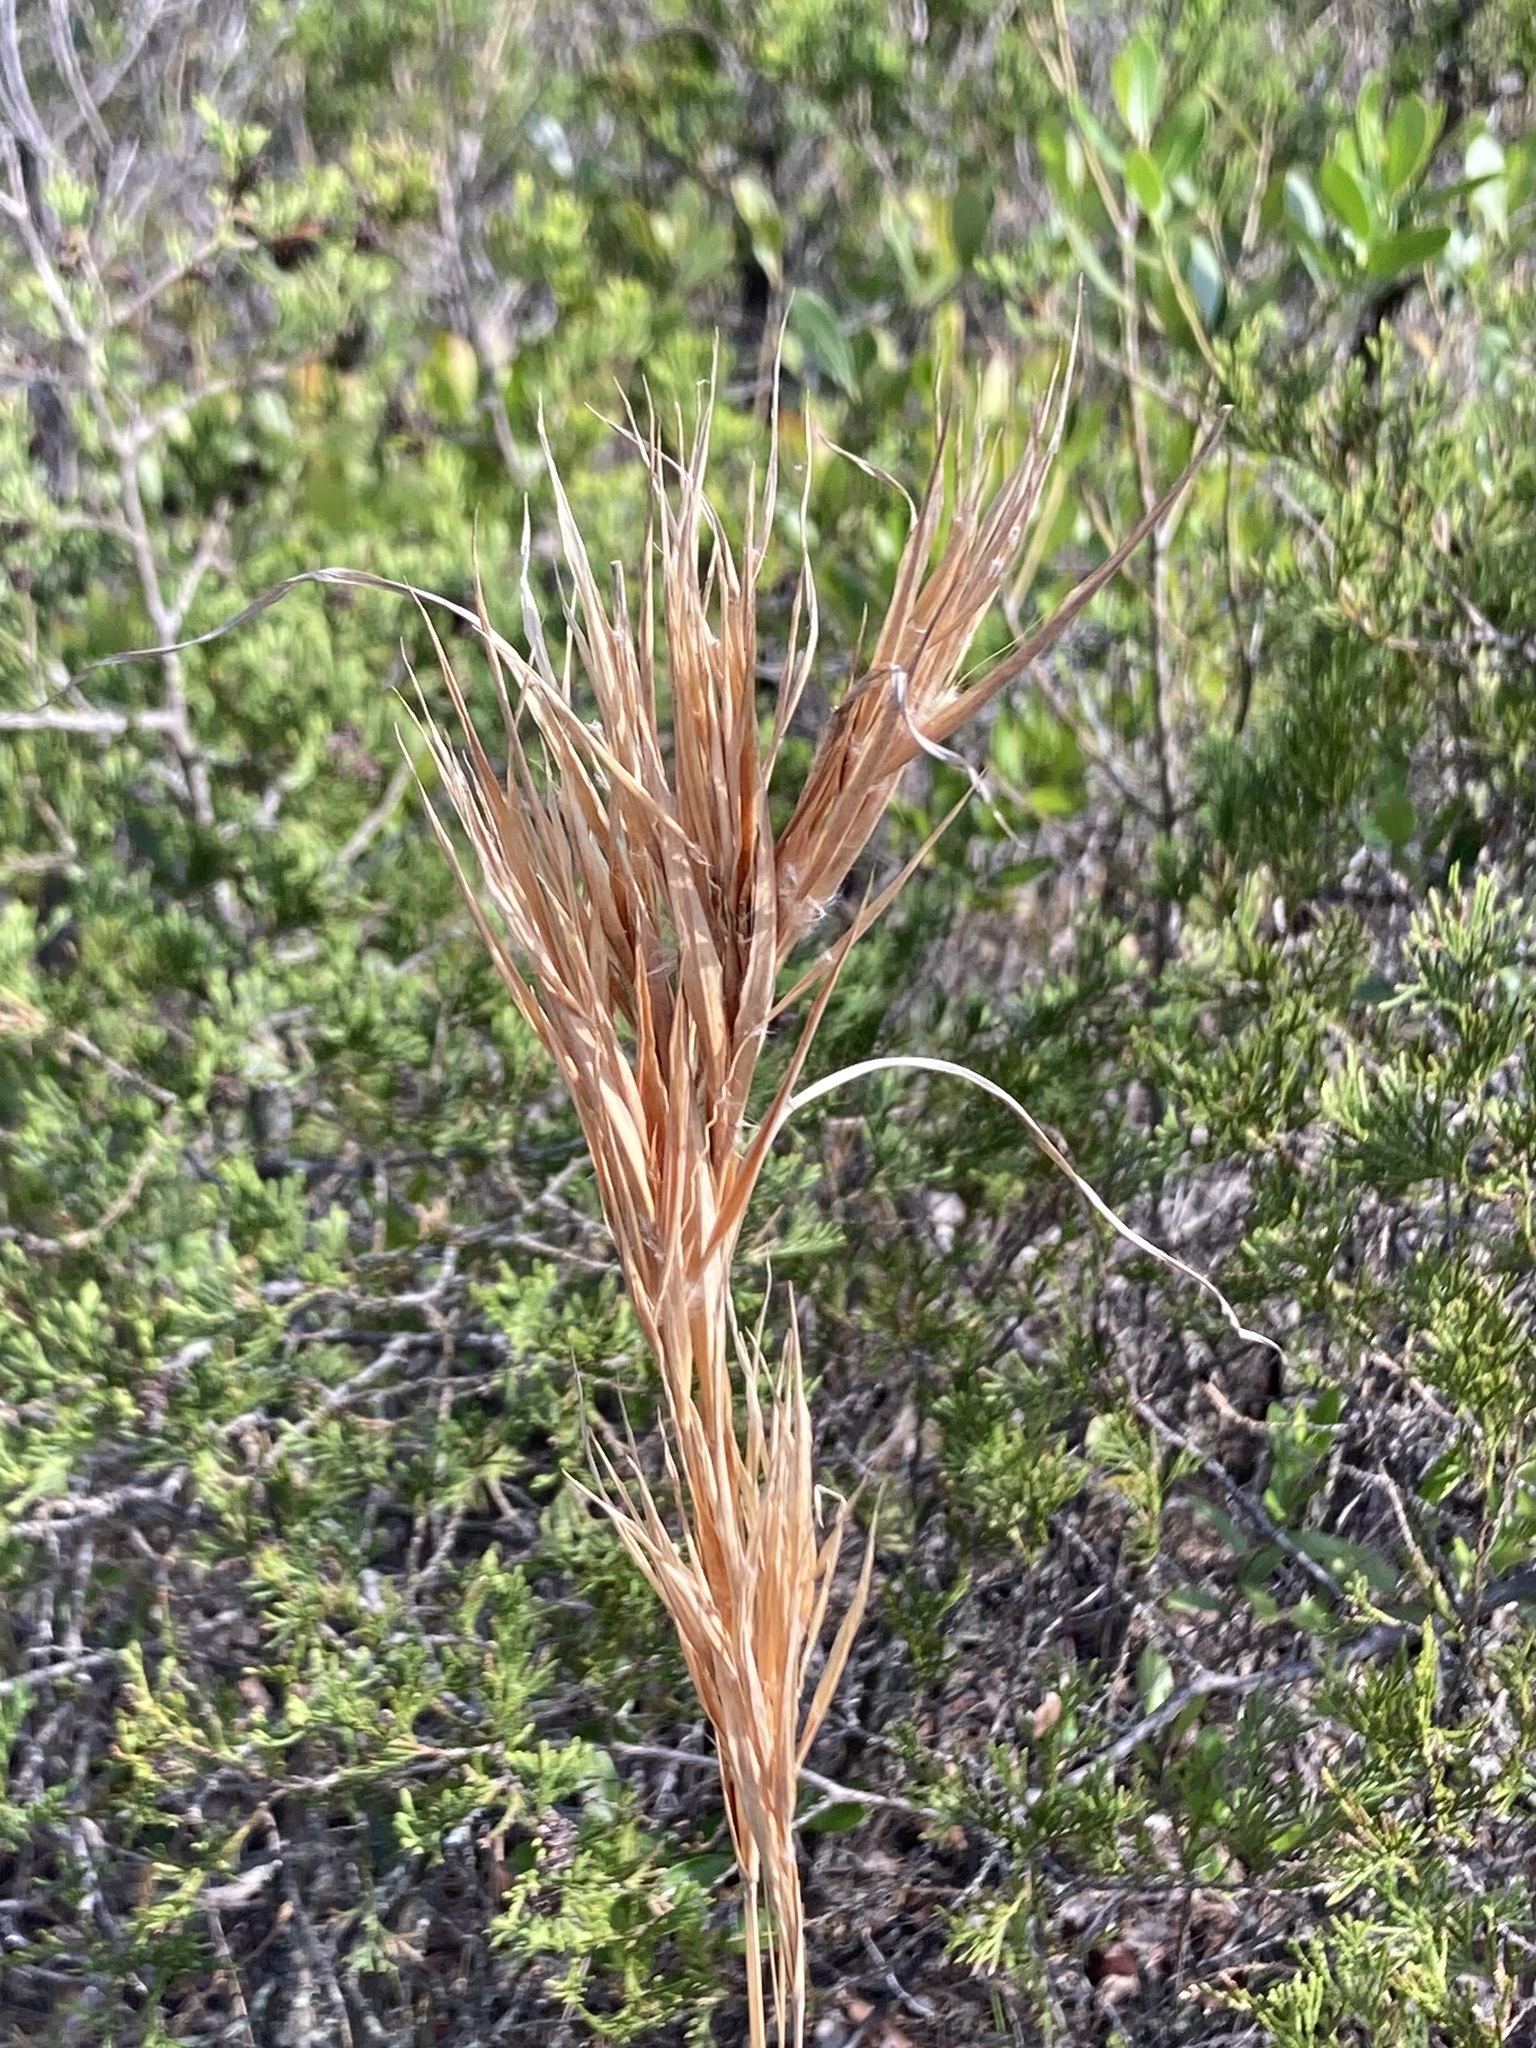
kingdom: Plantae
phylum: Tracheophyta
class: Liliopsida
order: Poales
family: Poaceae
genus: Andropogon
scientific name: Andropogon glomeratus
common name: Bushy beard grass
